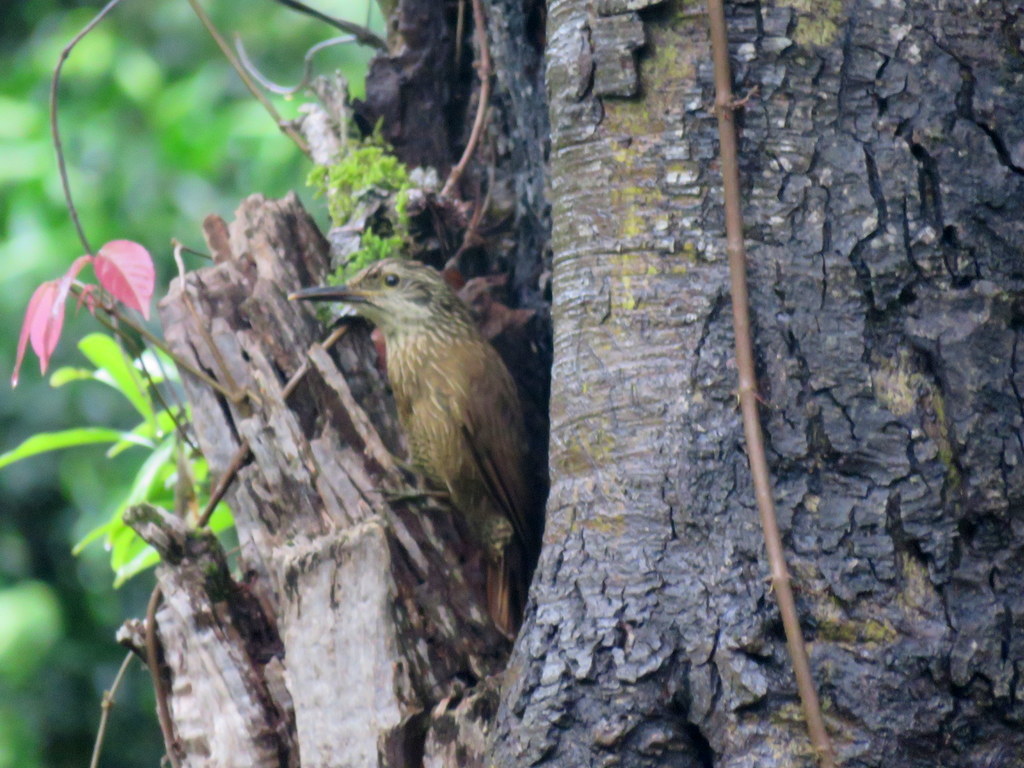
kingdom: Animalia
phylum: Chordata
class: Aves
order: Passeriformes
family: Furnariidae
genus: Dendrocolaptes
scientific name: Dendrocolaptes platyrostris
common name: Planalto woodcreeper
